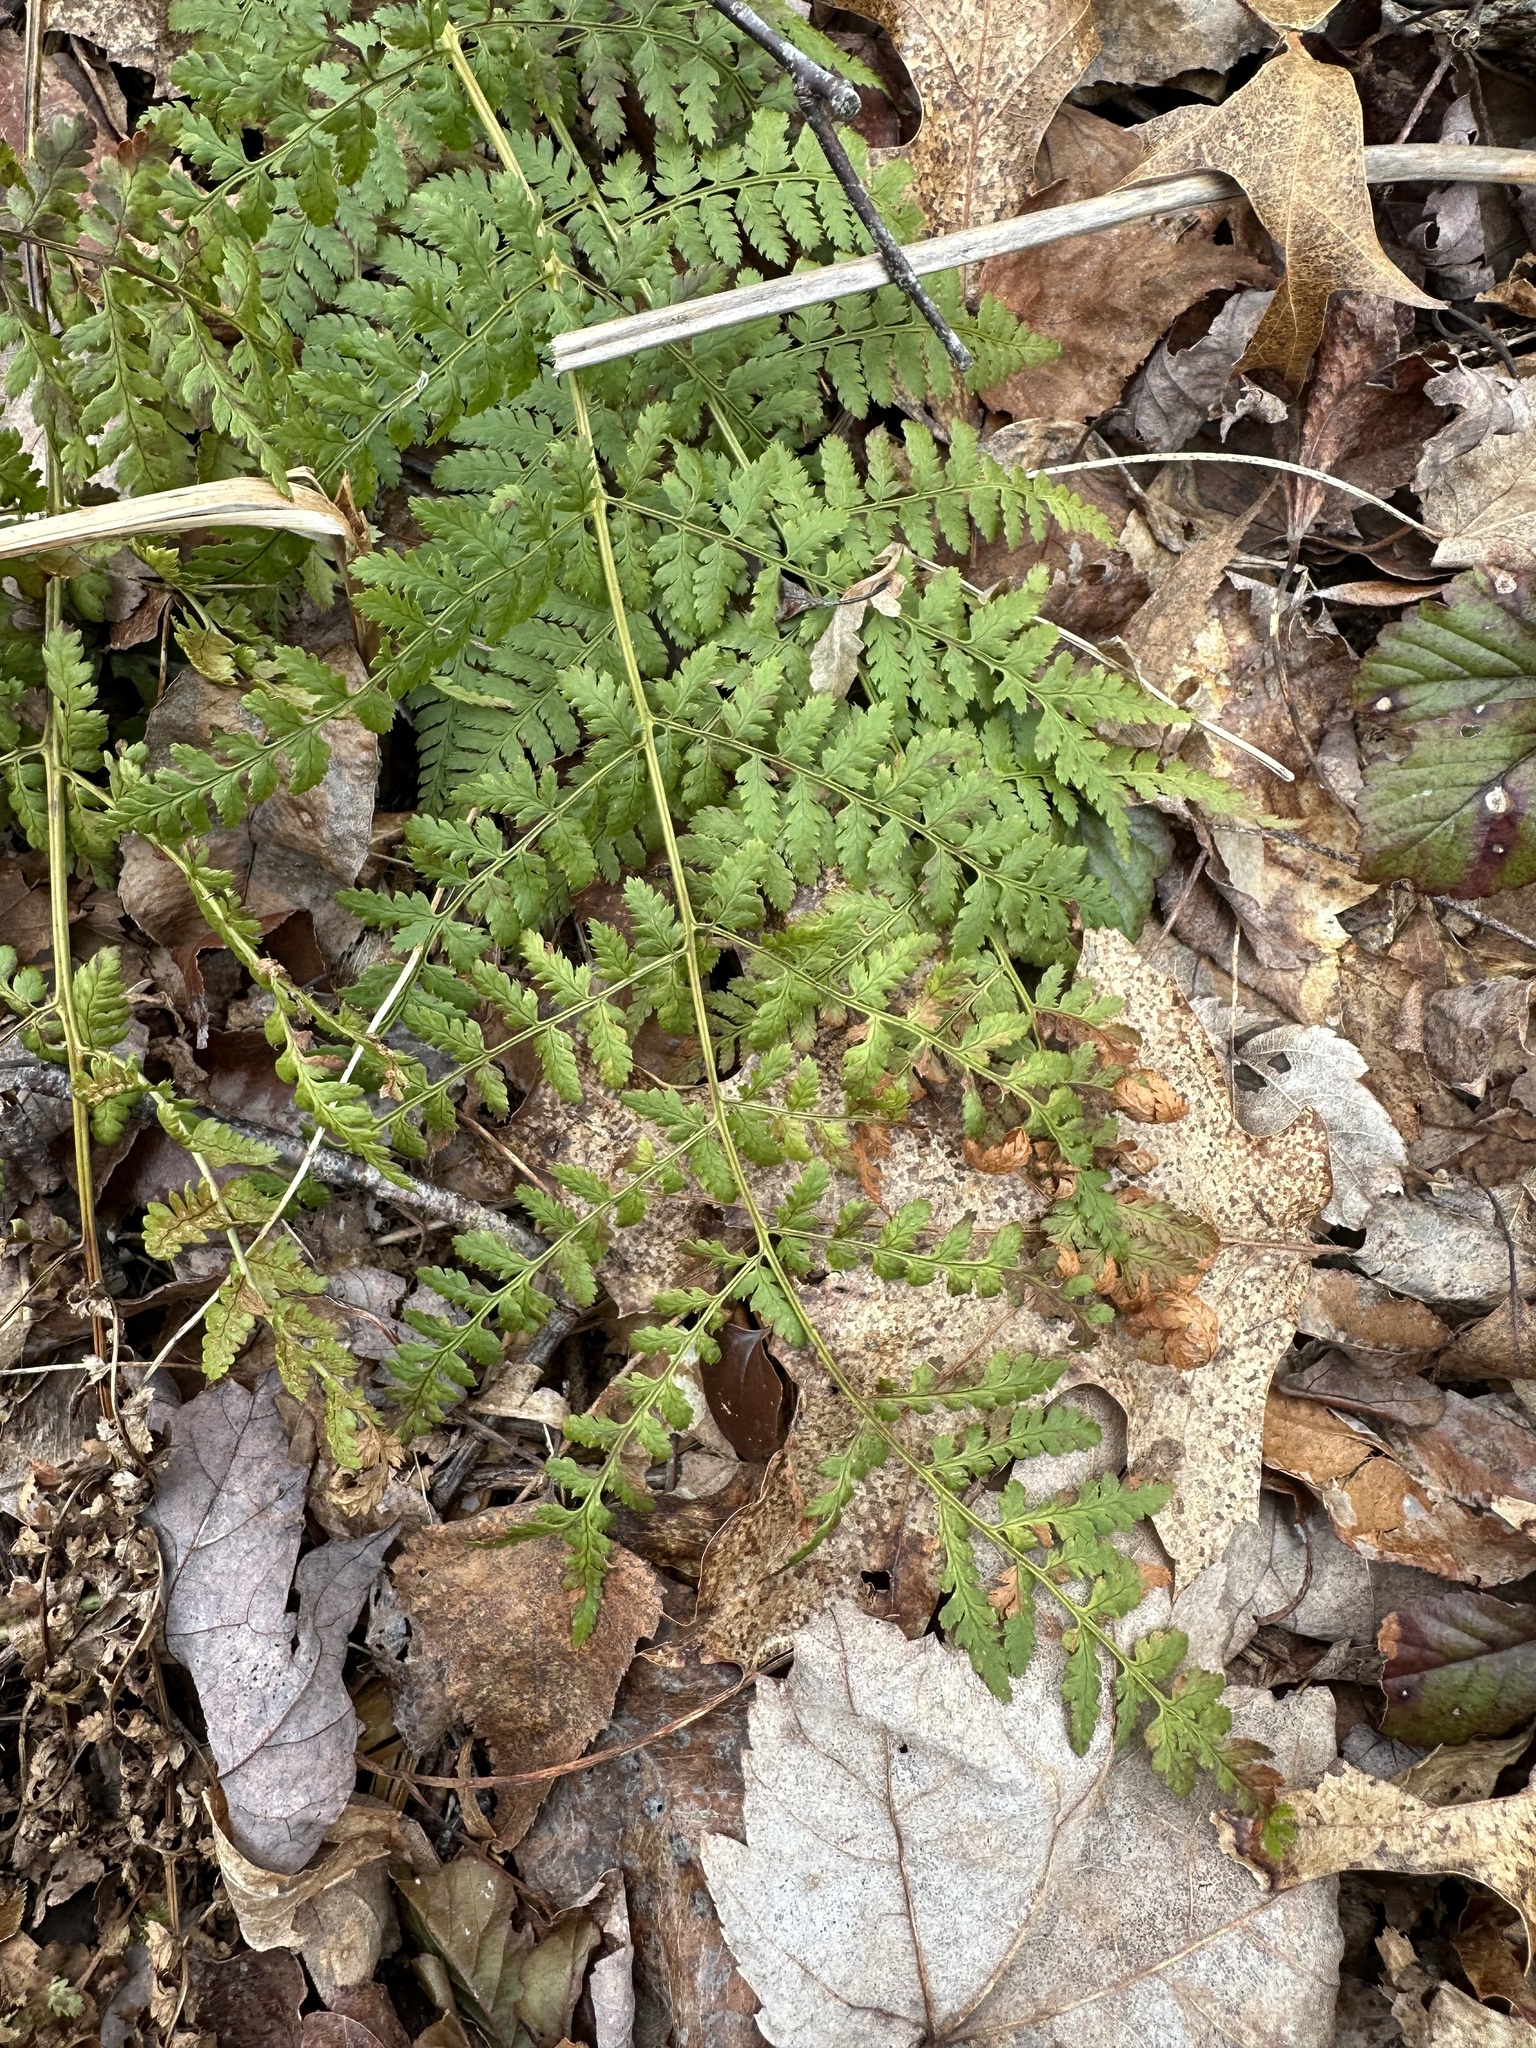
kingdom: Plantae
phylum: Tracheophyta
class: Polypodiopsida
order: Polypodiales
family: Dryopteridaceae
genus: Dryopteris
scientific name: Dryopteris intermedia
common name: Evergreen wood fern
